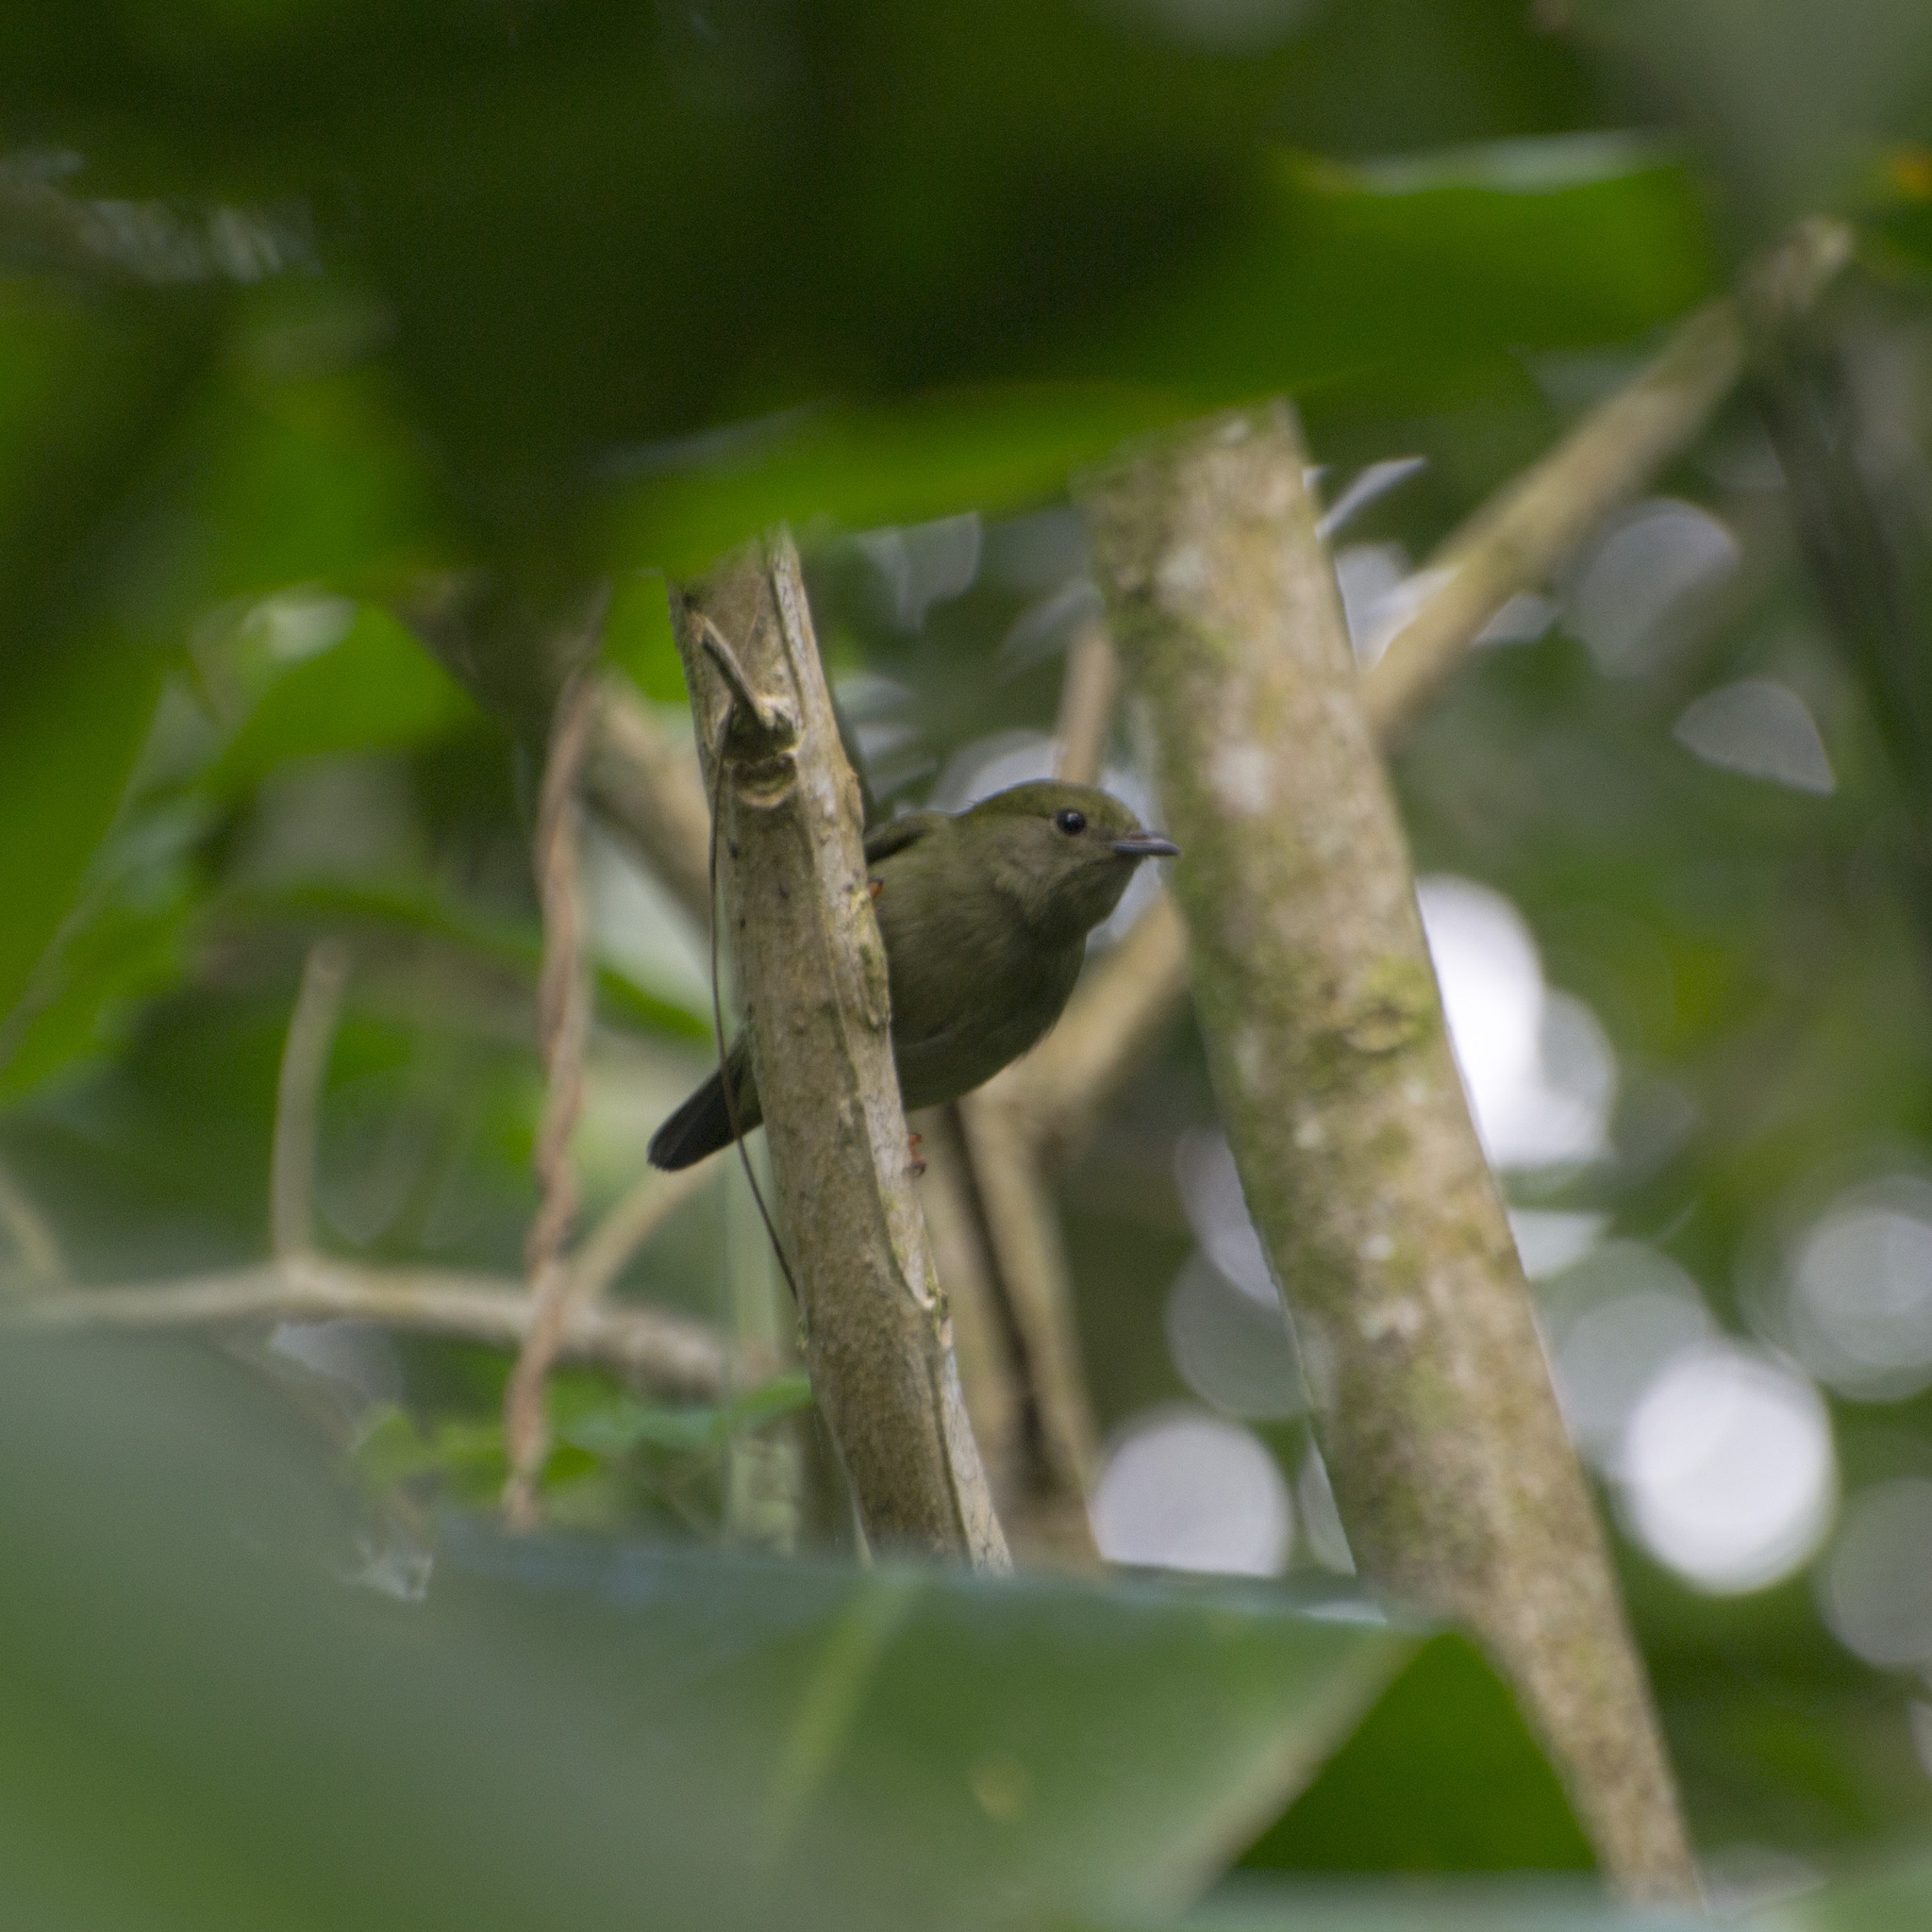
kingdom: Animalia
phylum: Chordata
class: Aves
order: Passeriformes
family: Pipridae
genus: Manacus
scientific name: Manacus manacus
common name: White-bearded manakin
